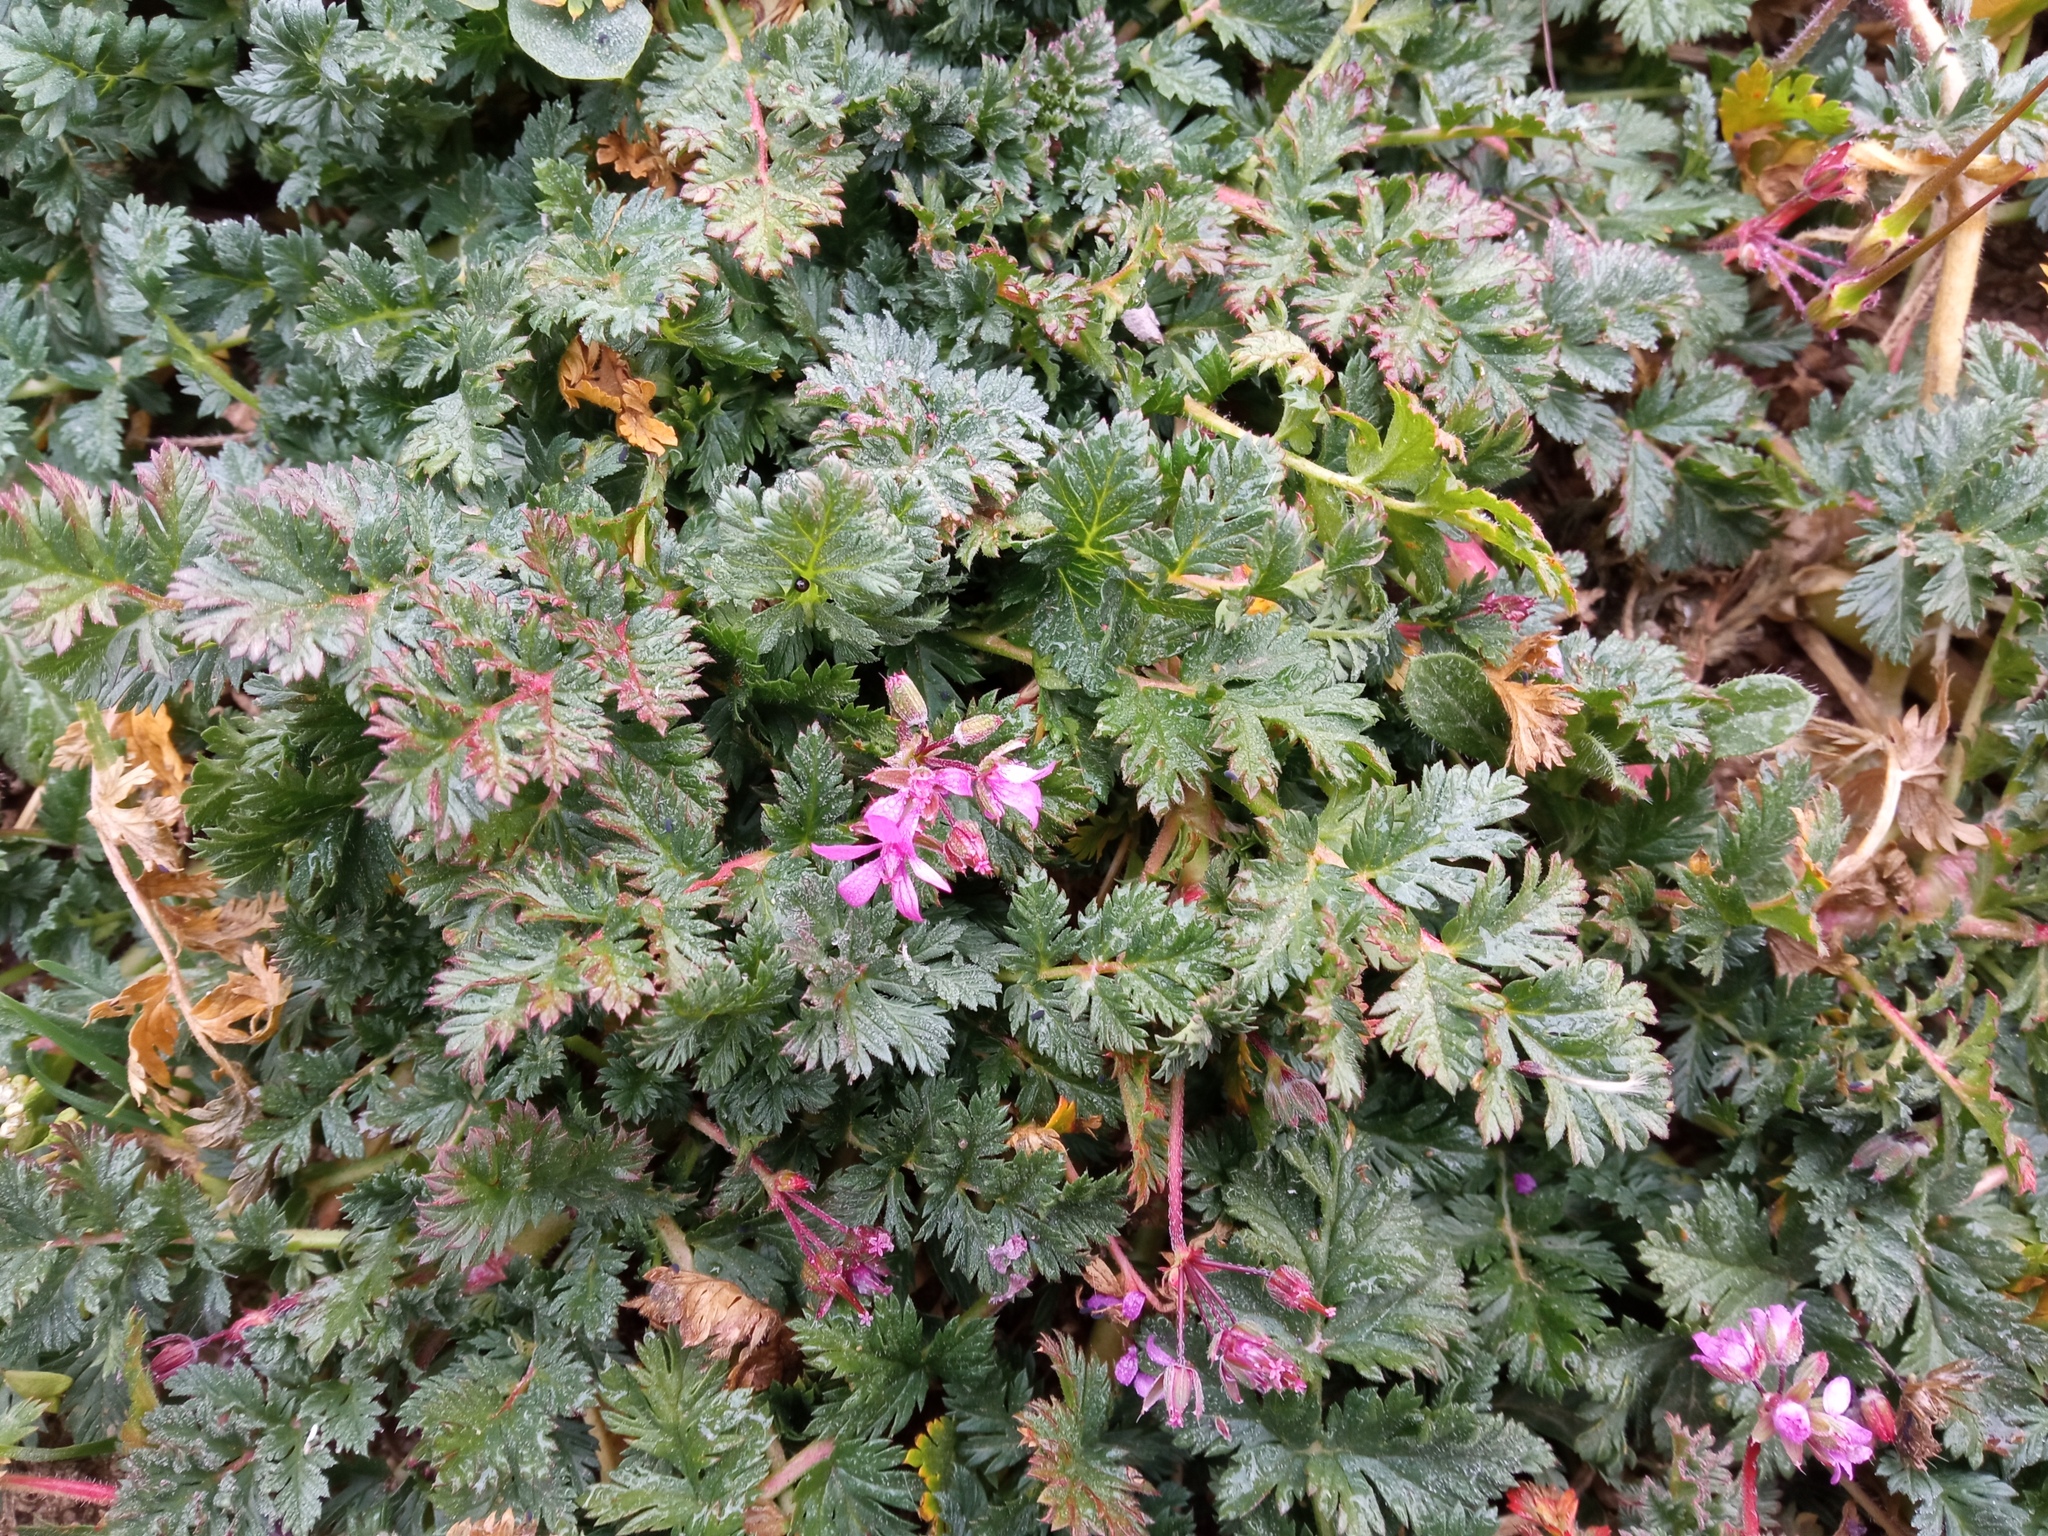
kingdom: Plantae
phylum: Tracheophyta
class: Magnoliopsida
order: Geraniales
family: Geraniaceae
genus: Erodium
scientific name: Erodium cicutarium
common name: Common stork's-bill
